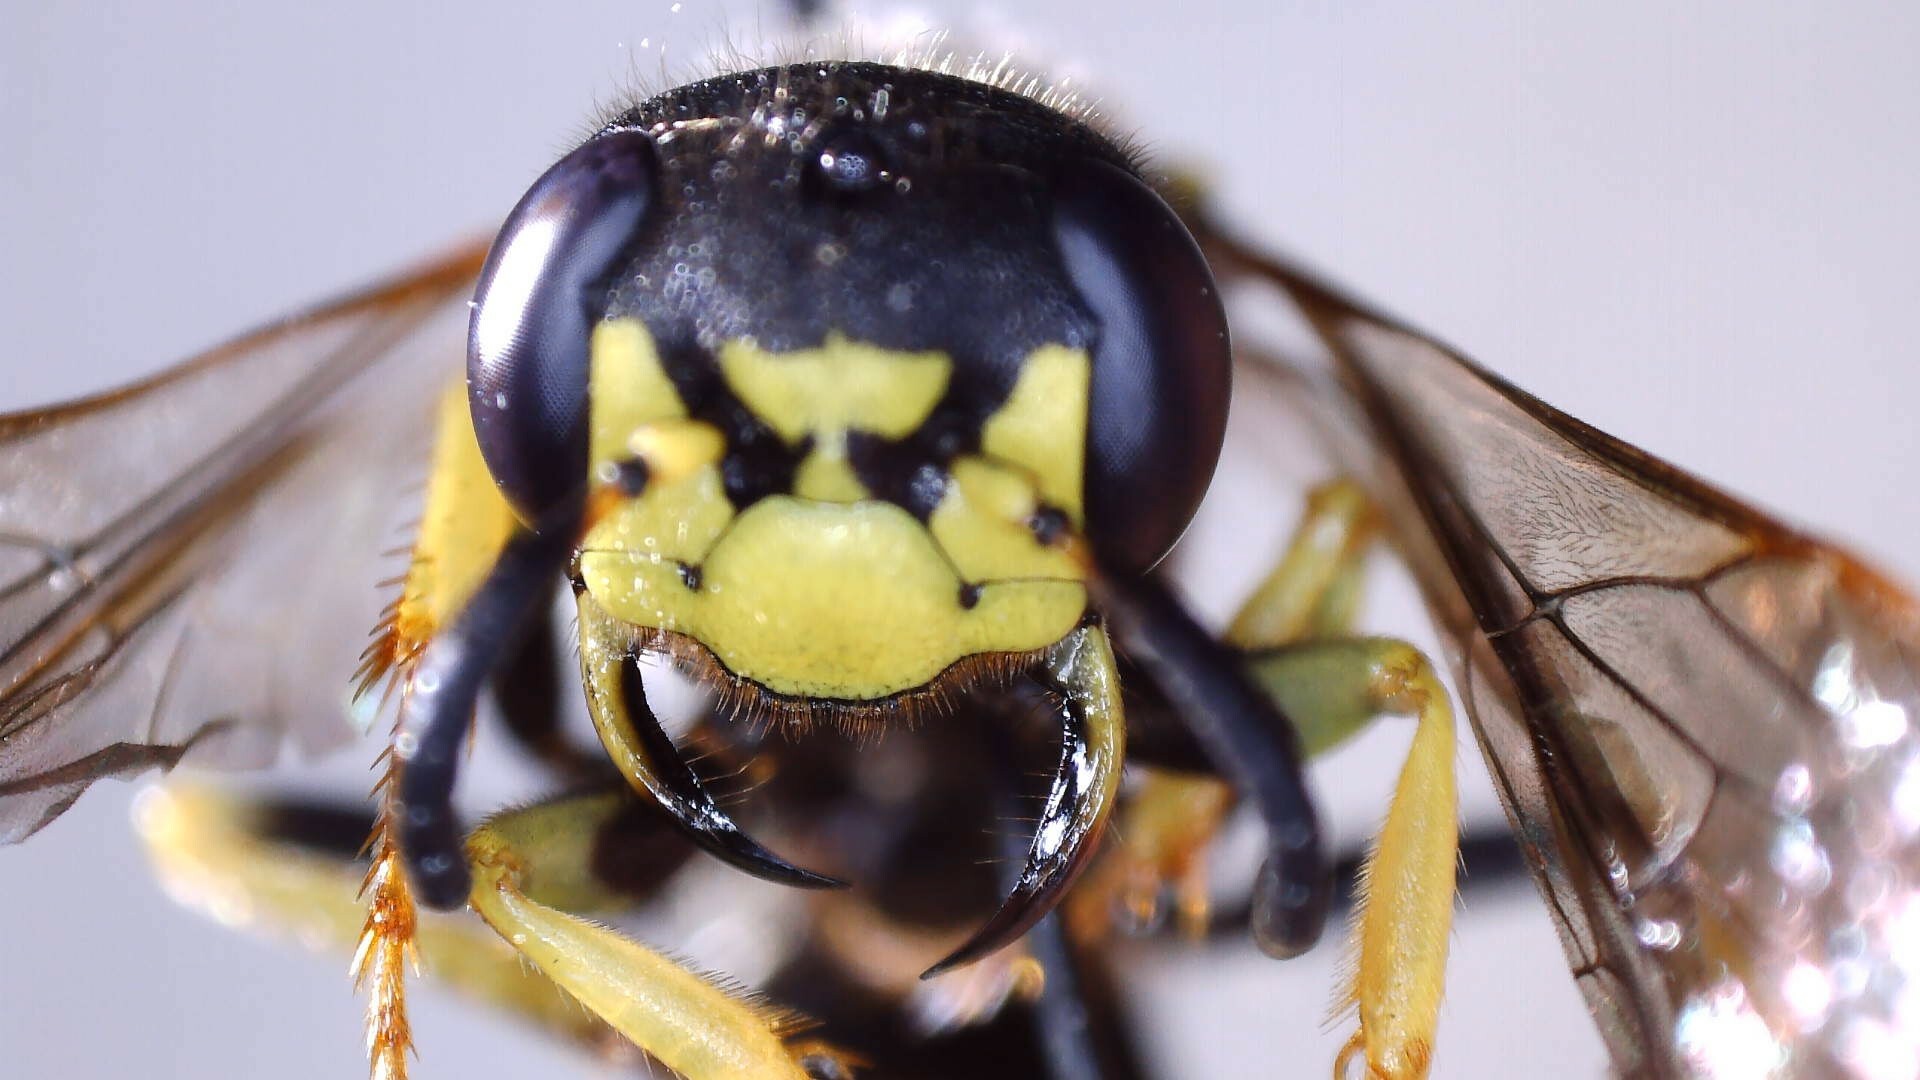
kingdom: Animalia
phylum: Arthropoda
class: Insecta
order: Hymenoptera
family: Crabronidae
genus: Philanthus
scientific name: Philanthus solivagus
